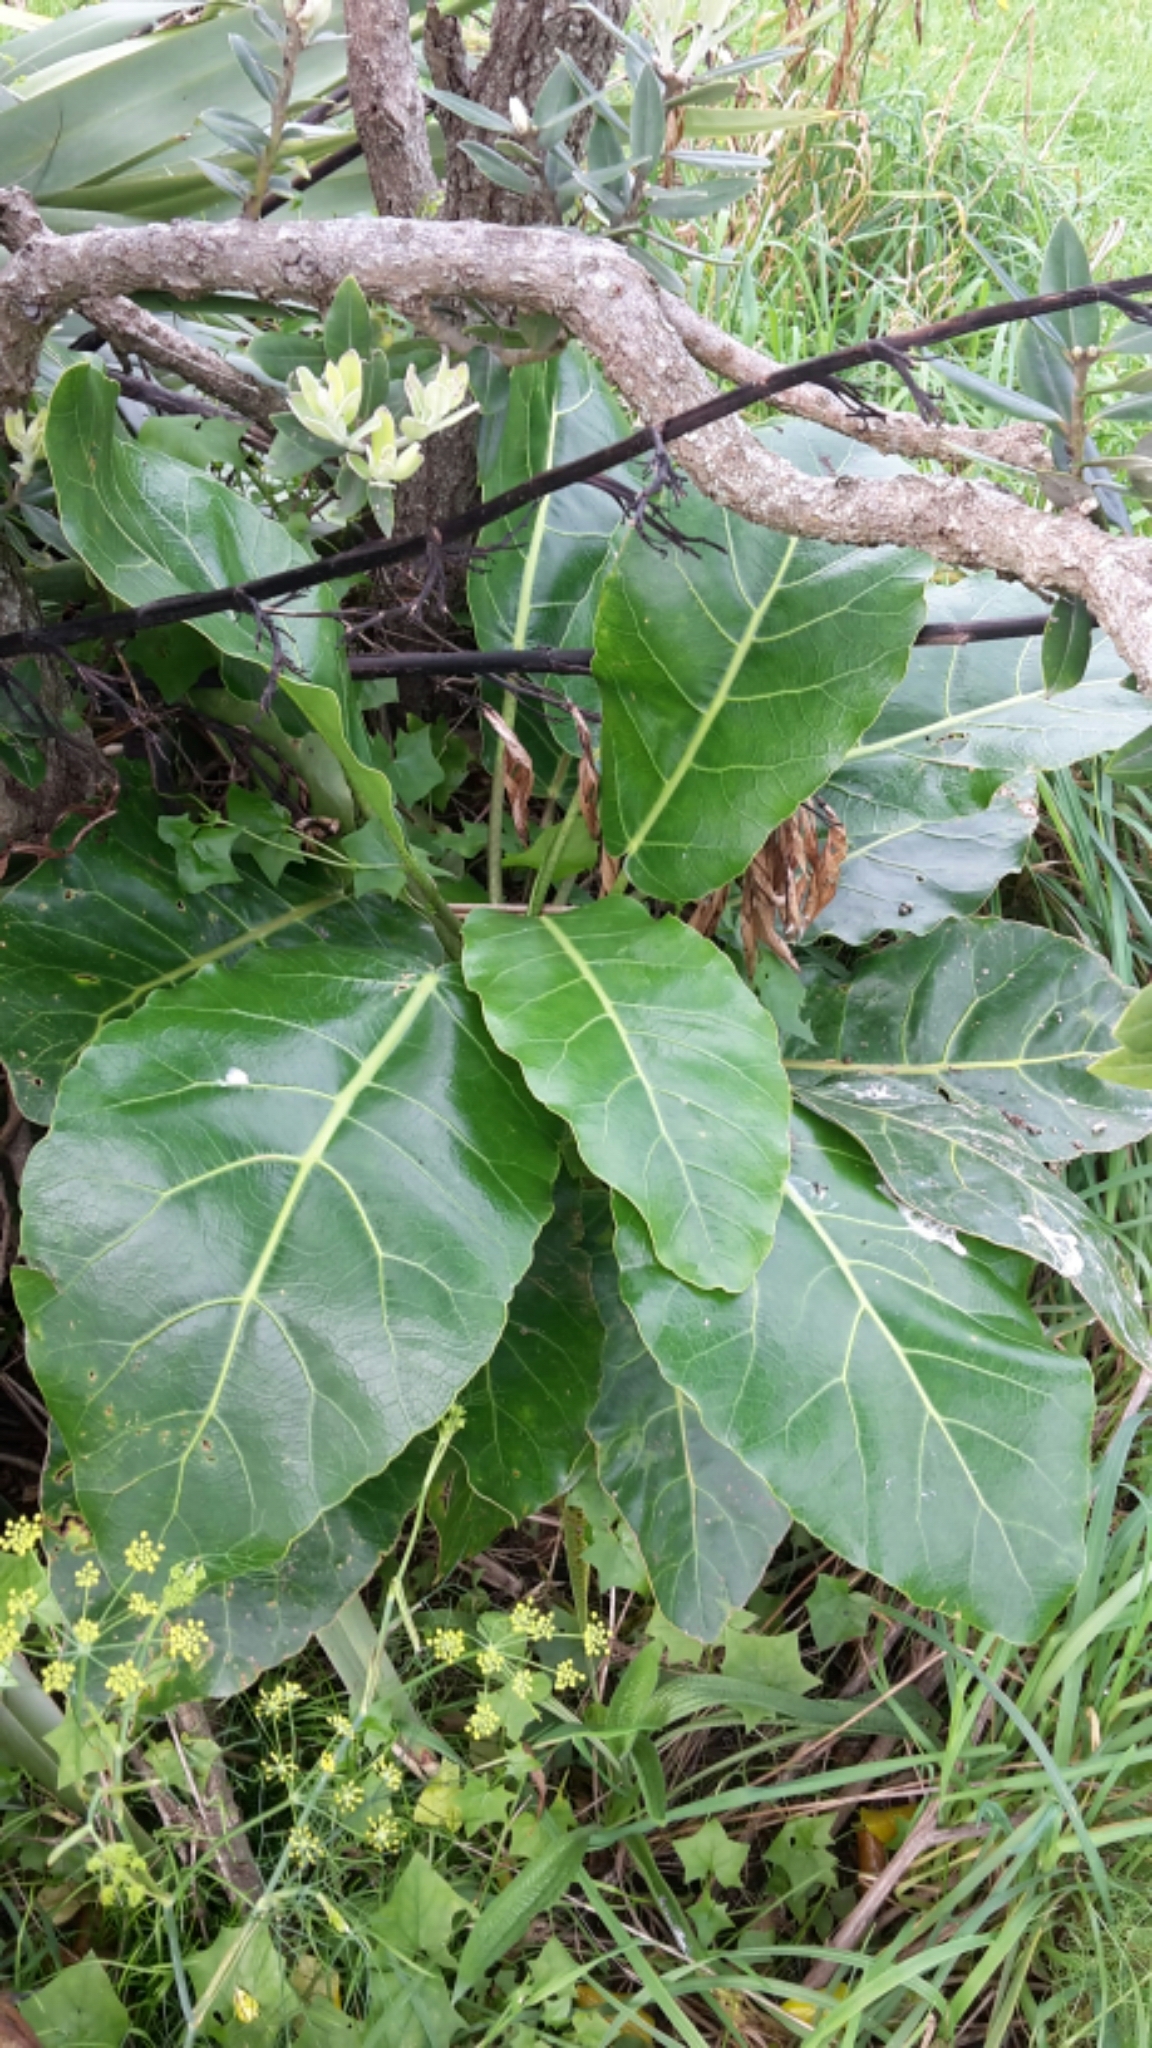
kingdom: Plantae
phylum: Tracheophyta
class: Magnoliopsida
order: Apiales
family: Araliaceae
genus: Meryta
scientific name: Meryta sinclairii
